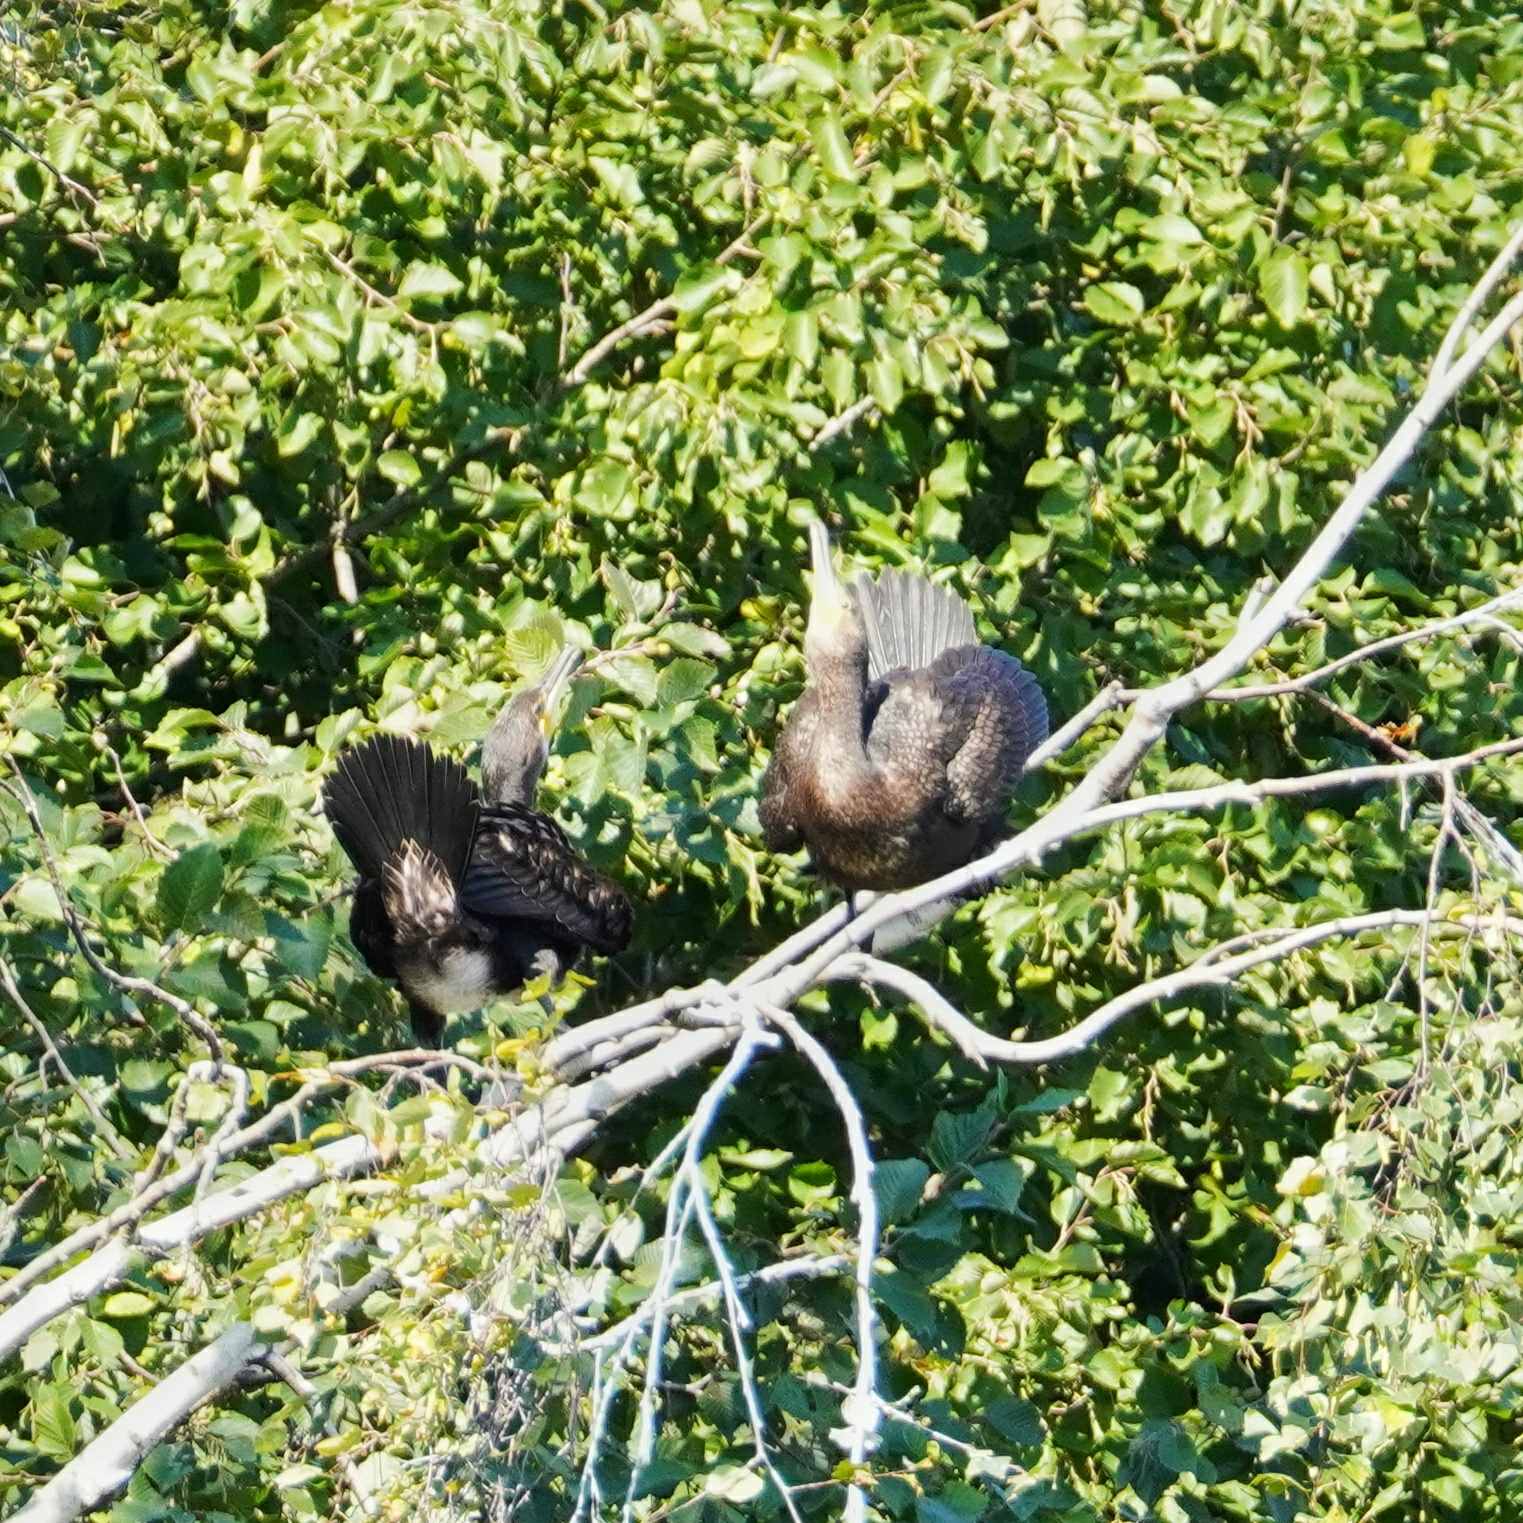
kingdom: Animalia
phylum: Chordata
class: Aves
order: Suliformes
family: Phalacrocoracidae
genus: Phalacrocorax
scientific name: Phalacrocorax carbo
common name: Great cormorant
